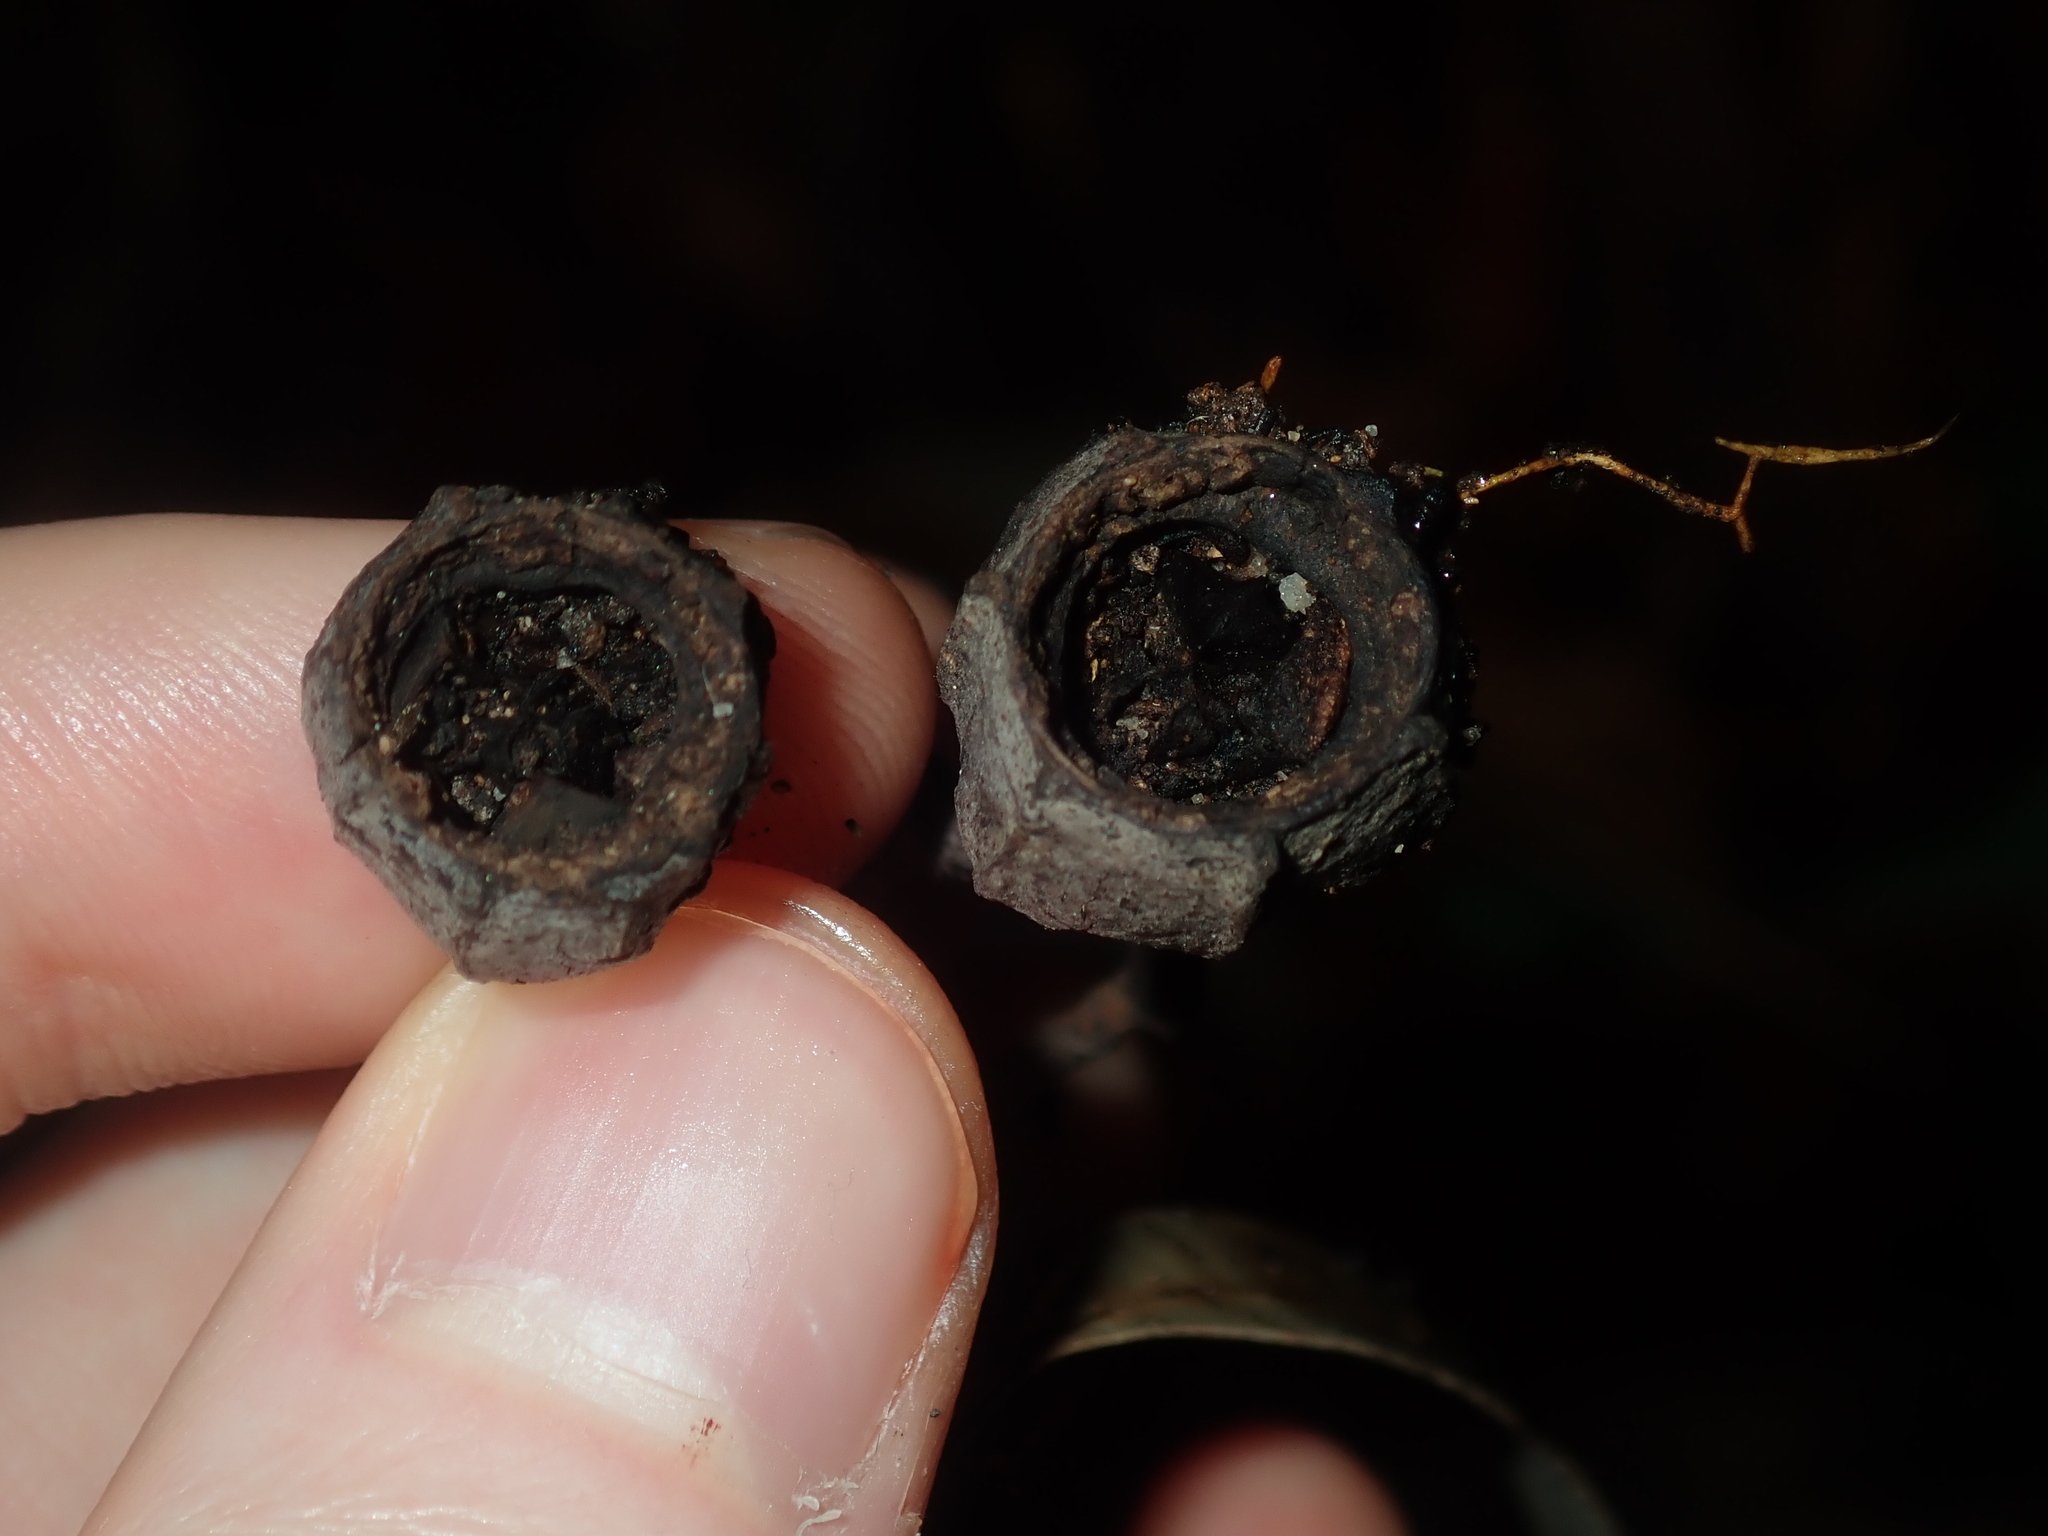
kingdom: Plantae
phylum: Tracheophyta
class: Magnoliopsida
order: Myrtales
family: Myrtaceae
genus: Angophora
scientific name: Angophora costata
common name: Gum myrtle
